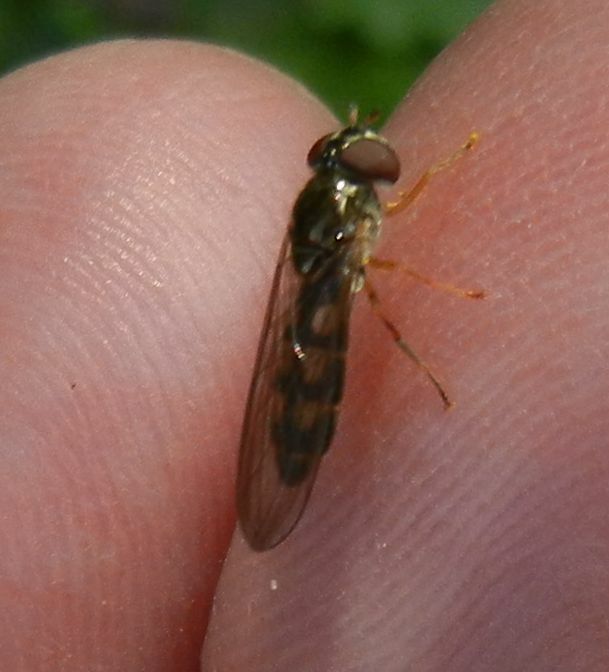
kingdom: Animalia
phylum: Arthropoda
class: Insecta
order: Diptera
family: Syrphidae
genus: Melanostoma
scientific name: Melanostoma scalare
